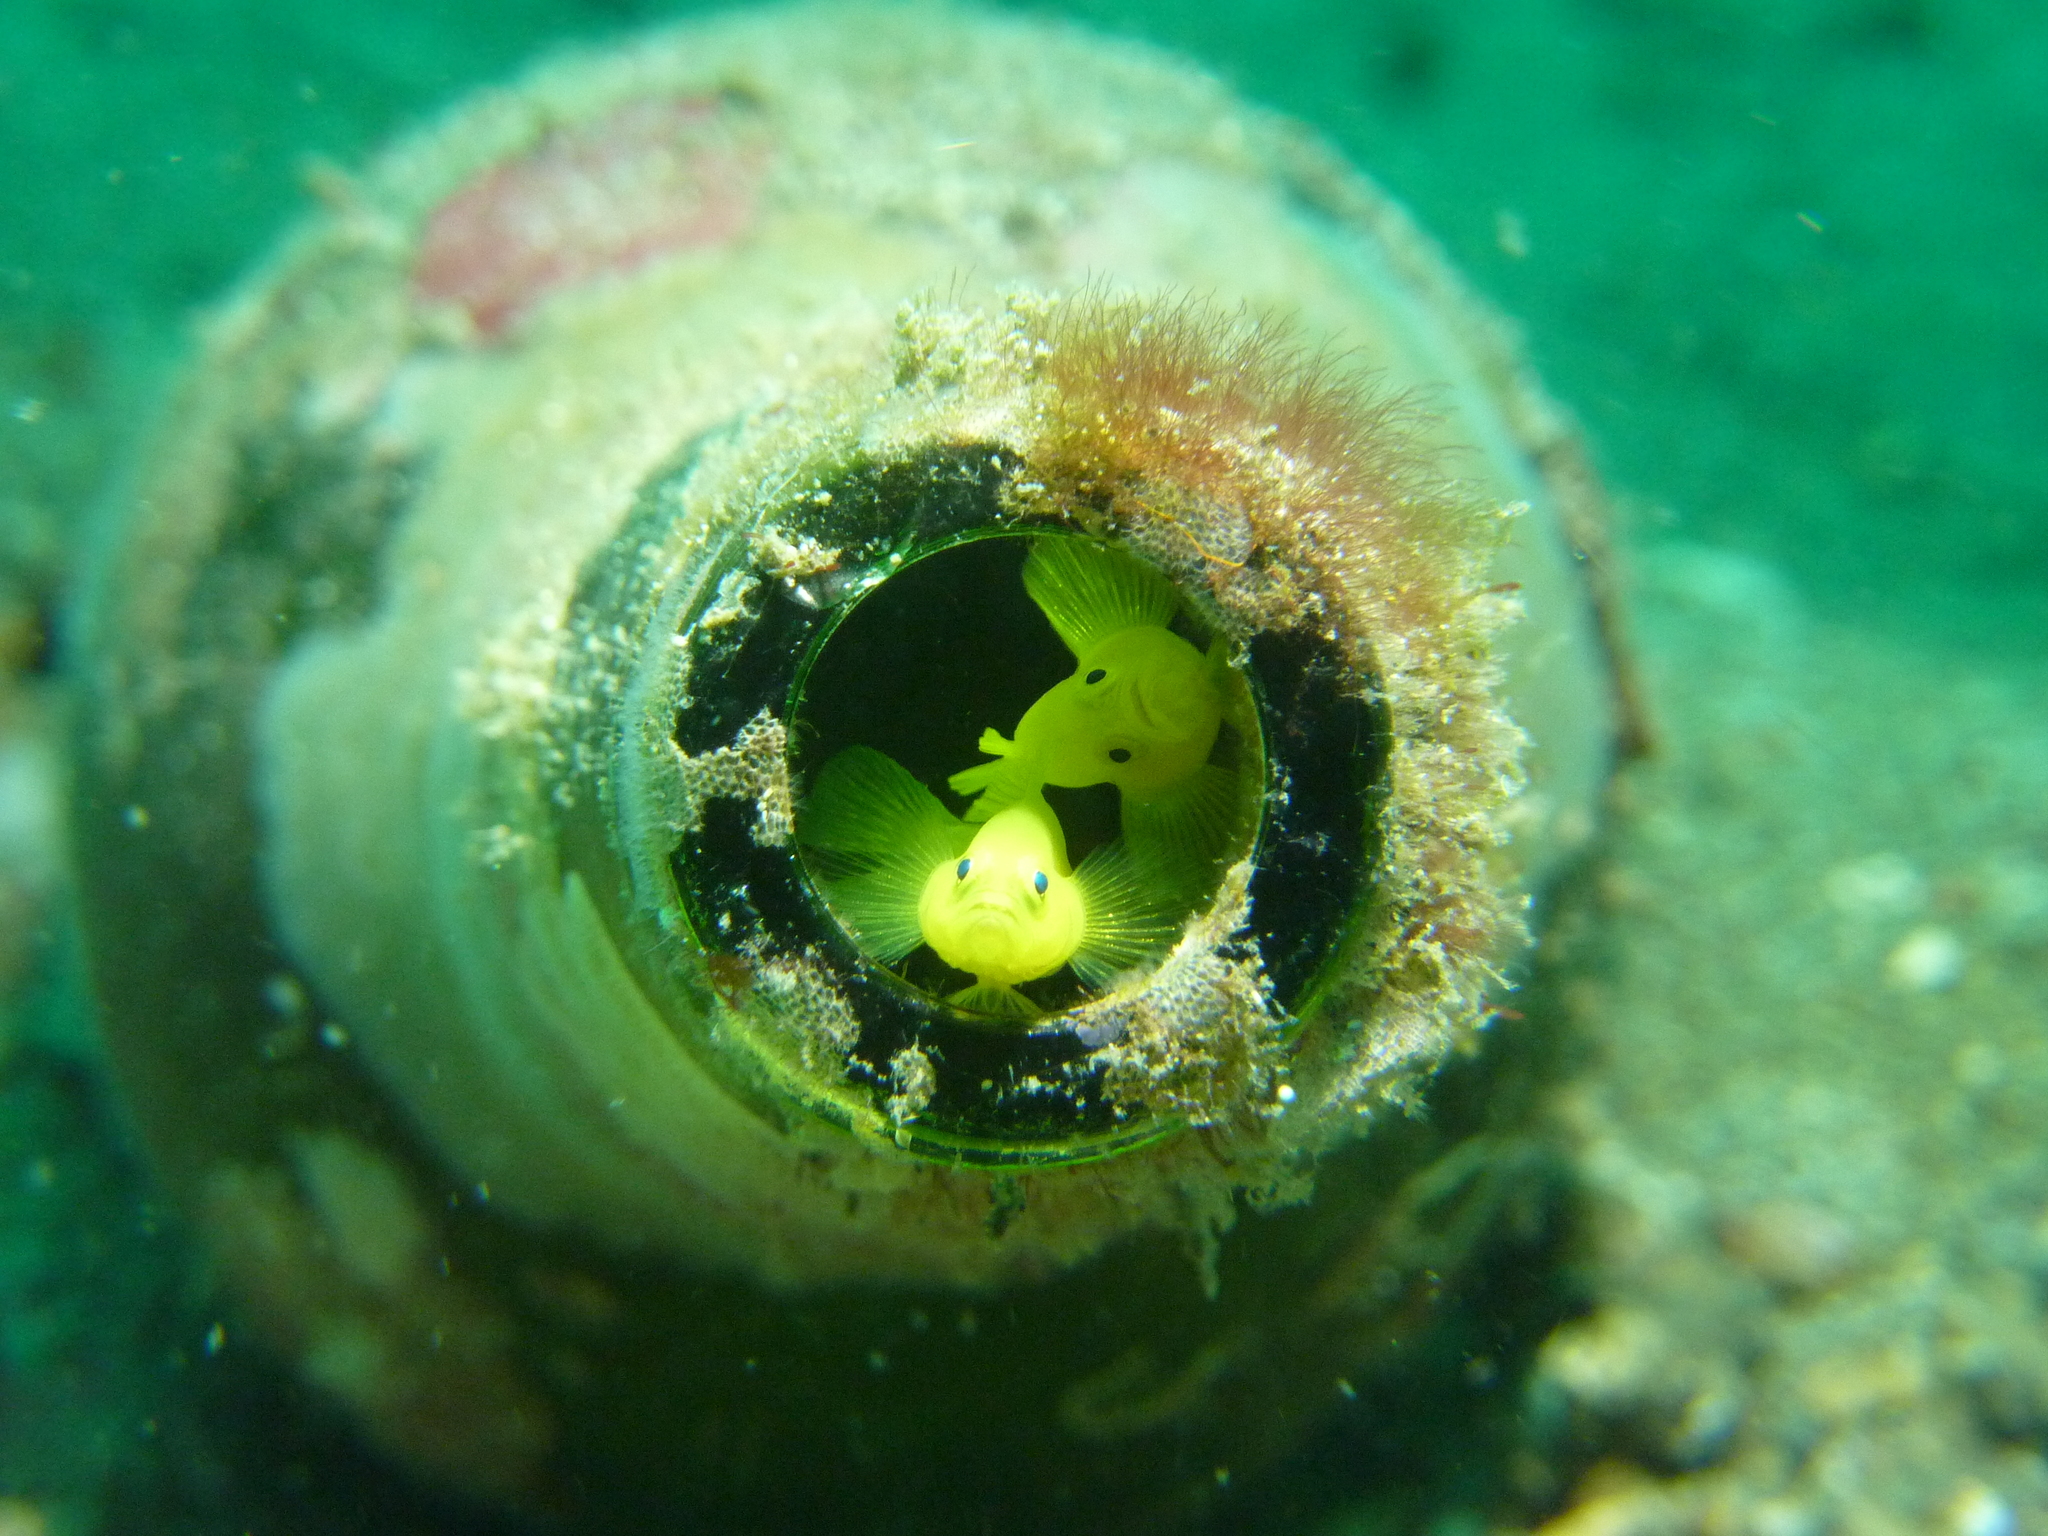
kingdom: Animalia
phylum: Chordata
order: Perciformes
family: Gobiidae
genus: Lubricogobius
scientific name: Lubricogobius exiguus
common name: Yellow pygmy-goby
